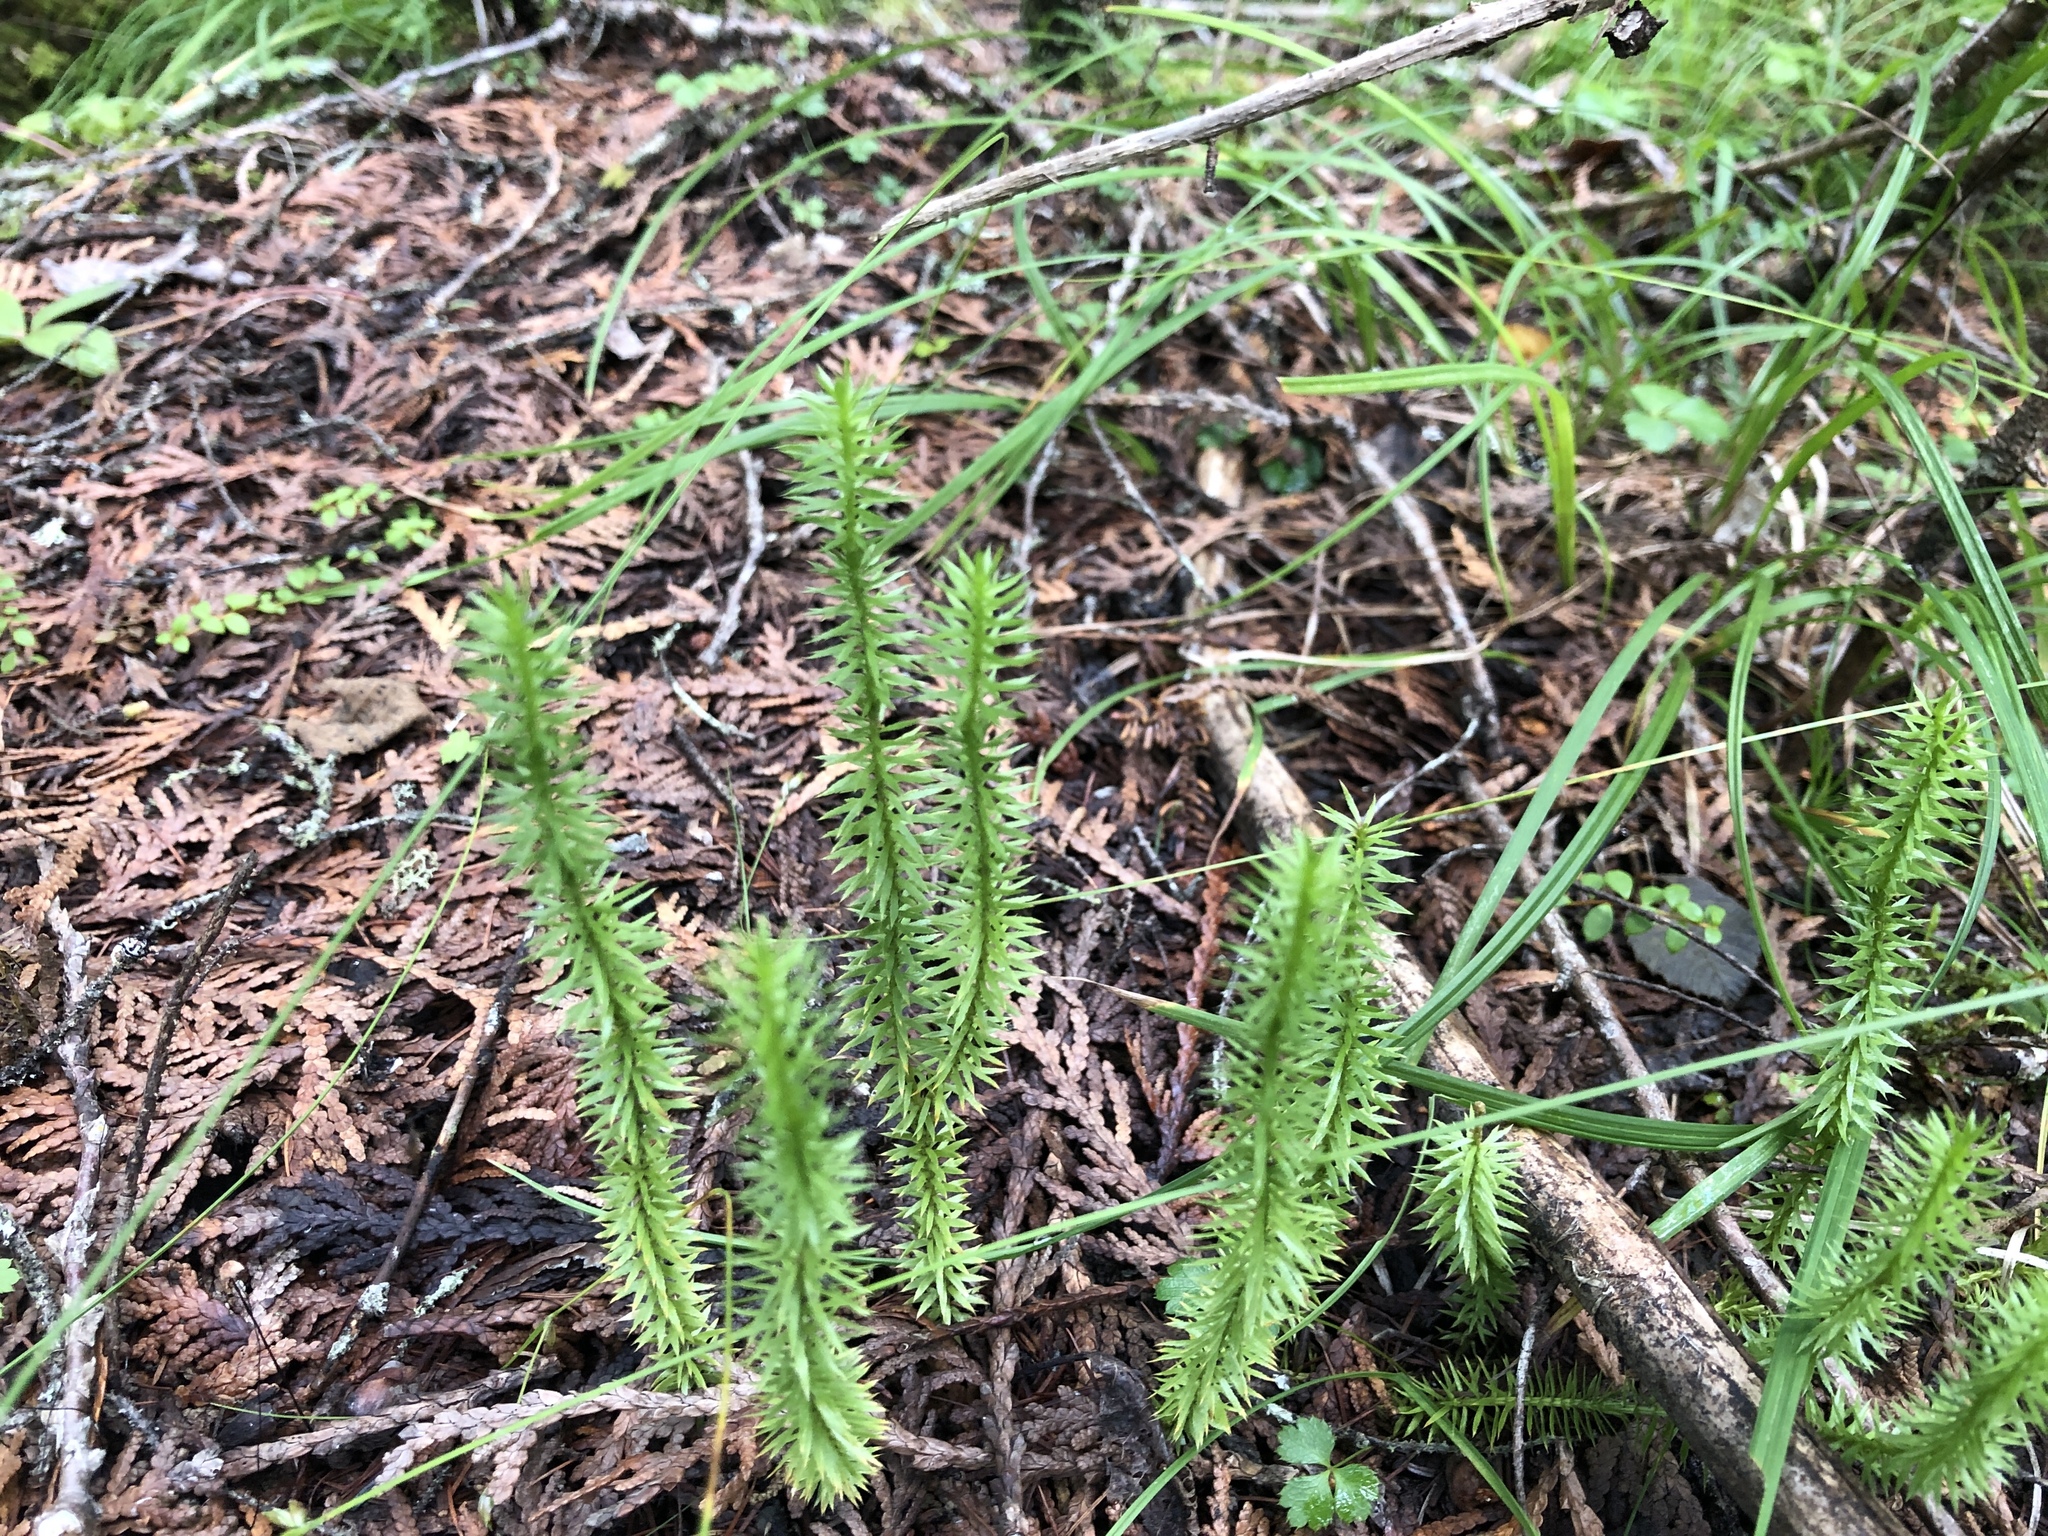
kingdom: Plantae
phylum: Tracheophyta
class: Lycopodiopsida
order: Lycopodiales
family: Lycopodiaceae
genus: Spinulum
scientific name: Spinulum annotinum
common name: Interrupted club-moss
